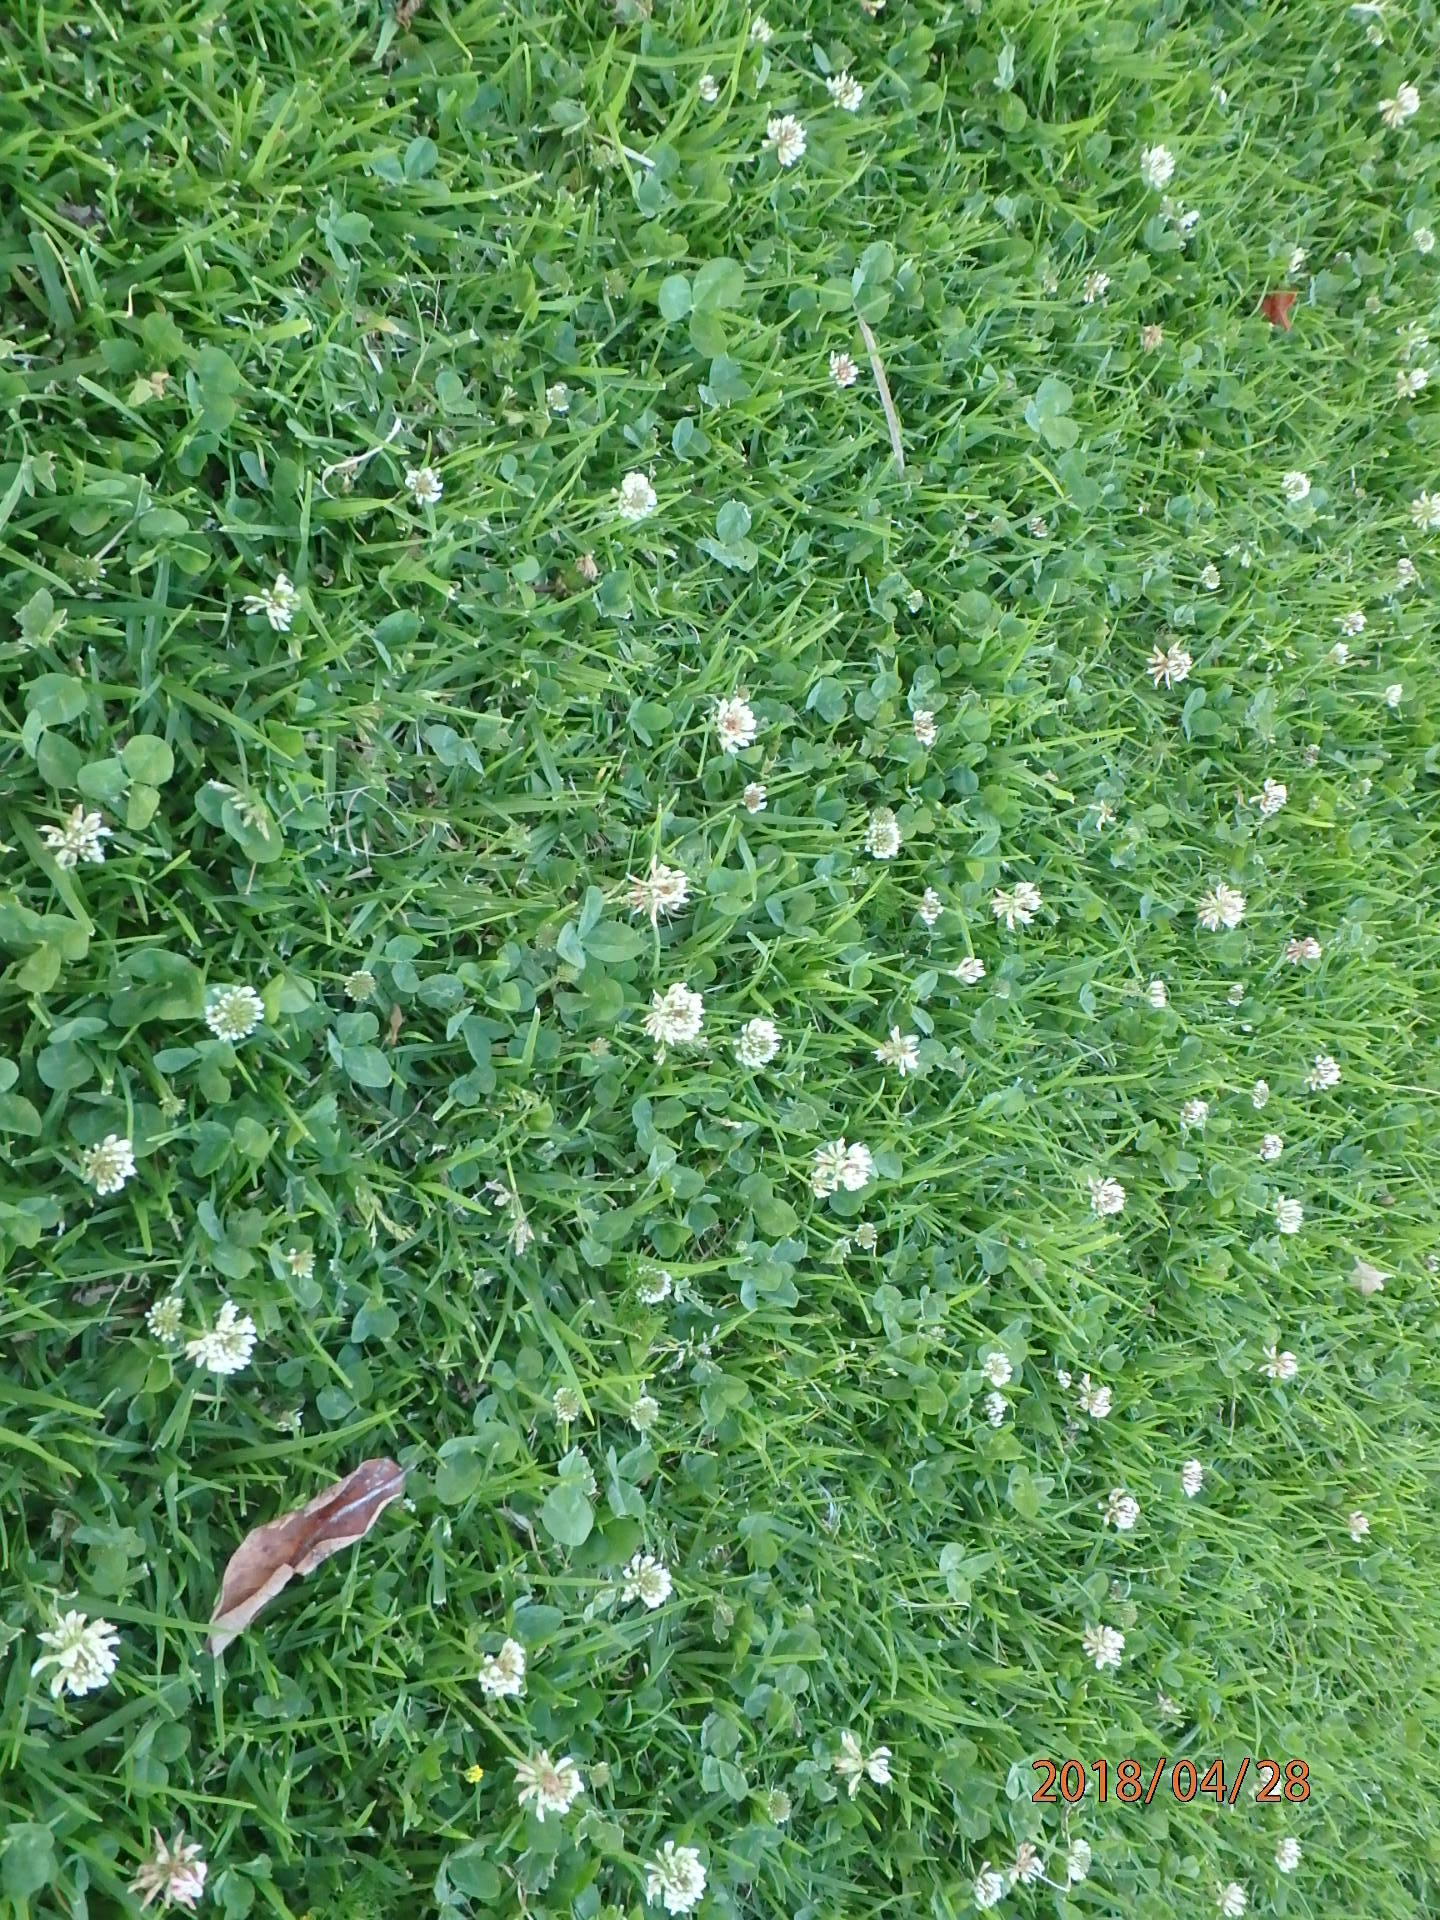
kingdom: Plantae
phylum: Tracheophyta
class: Magnoliopsida
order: Fabales
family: Fabaceae
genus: Trifolium
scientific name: Trifolium repens
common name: White clover
